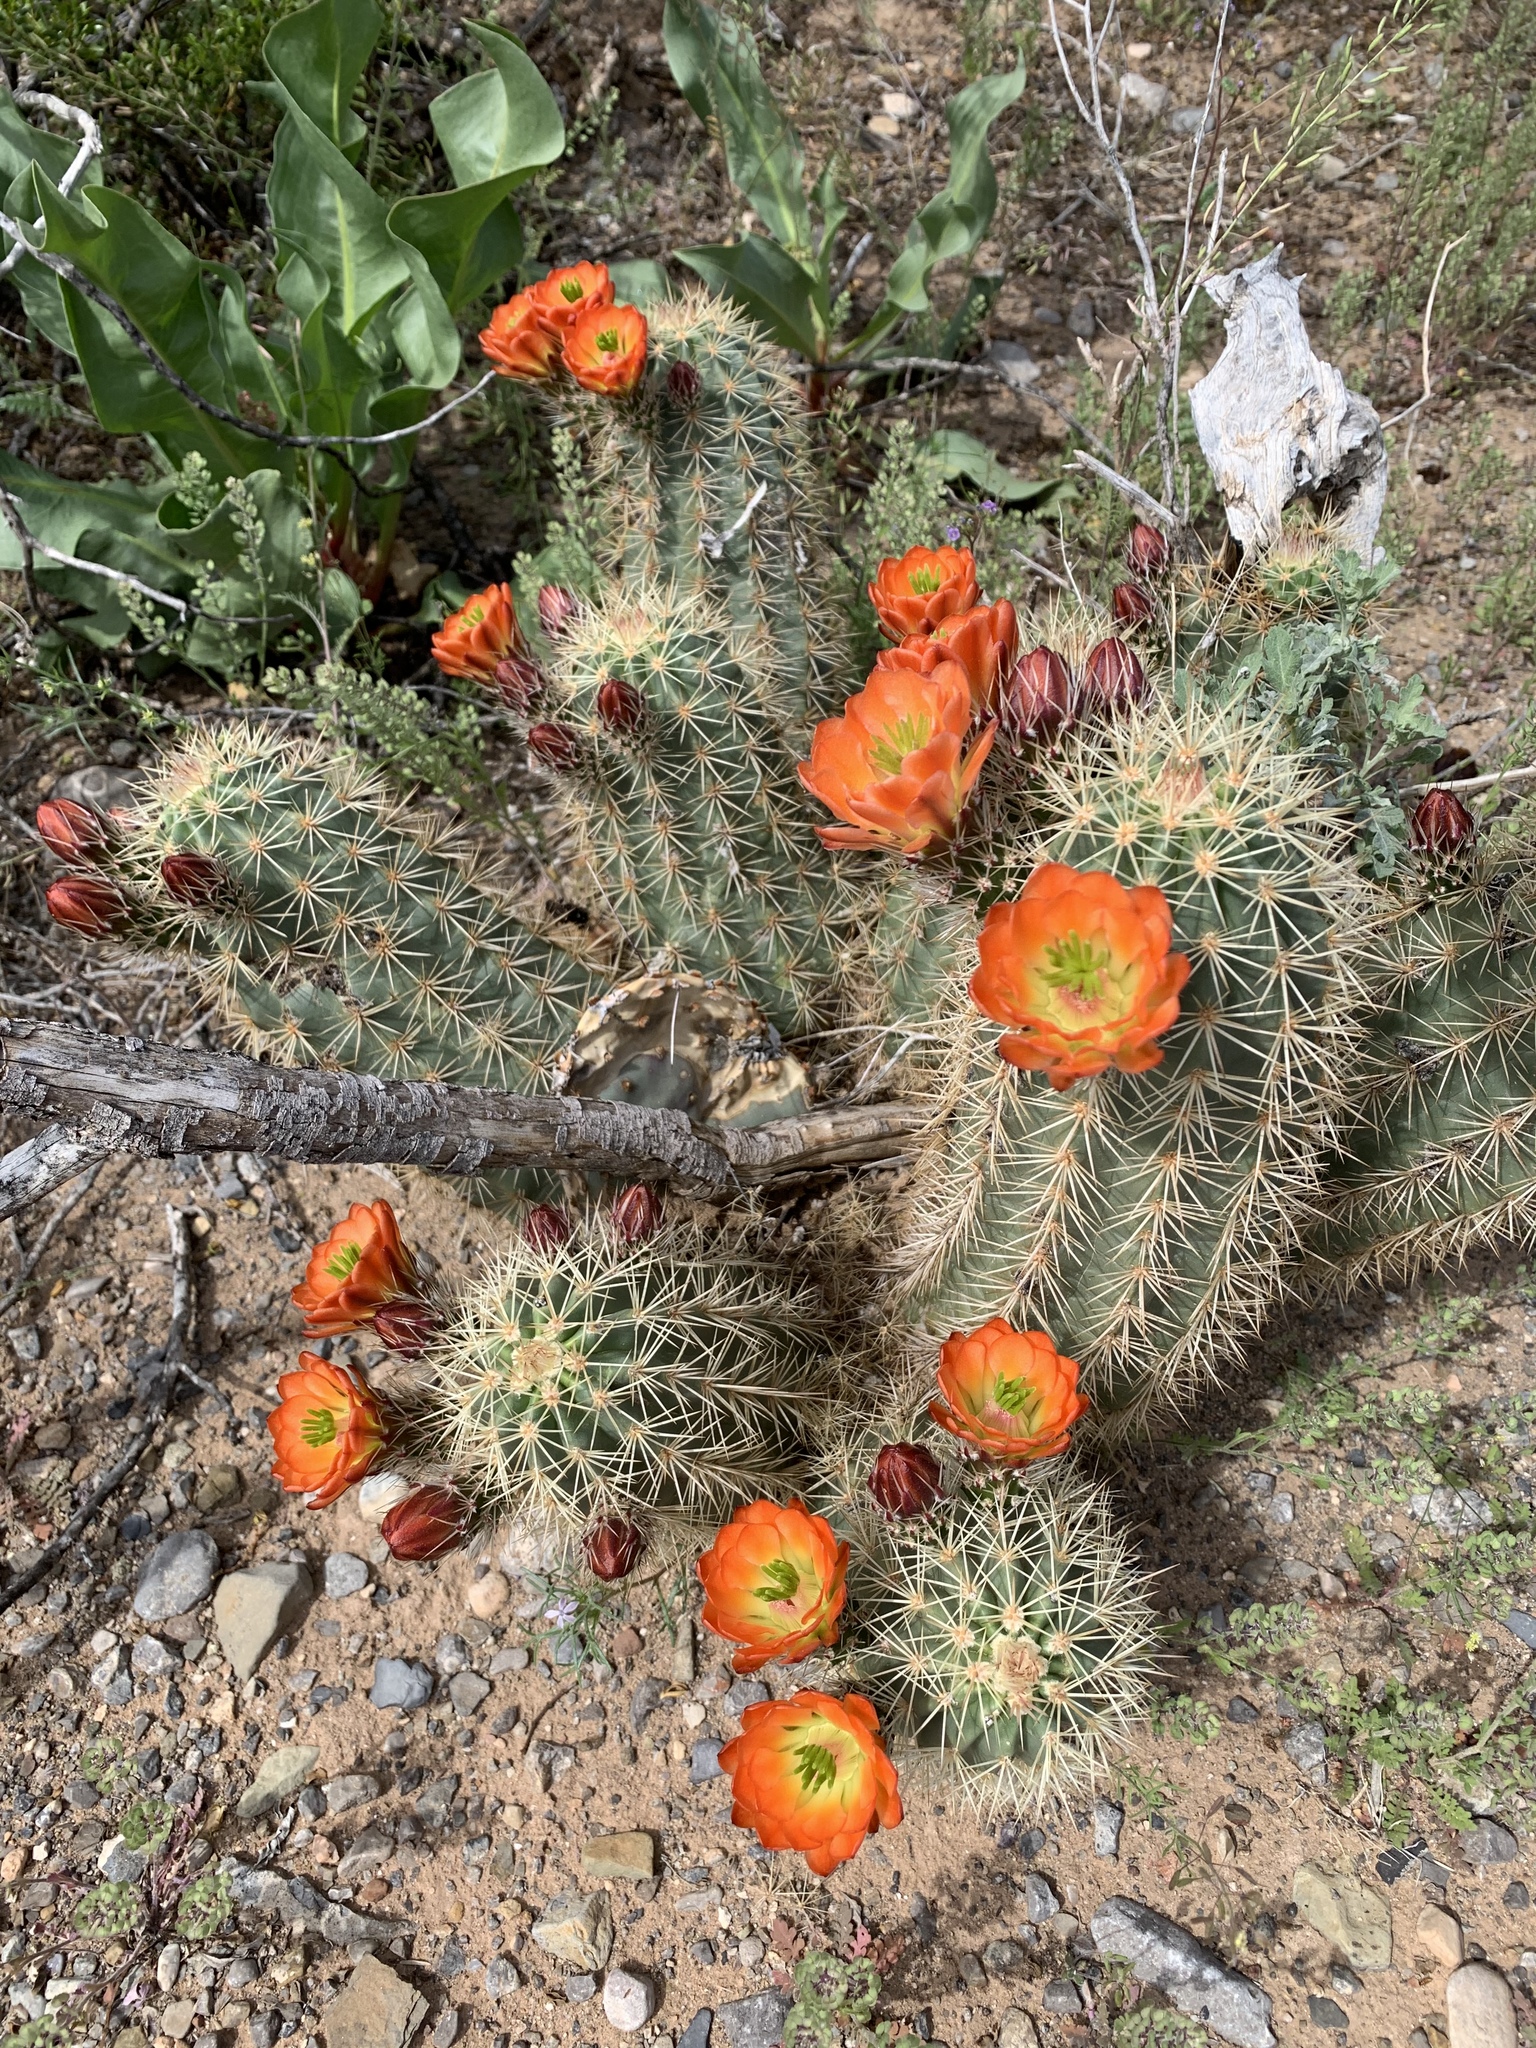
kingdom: Plantae
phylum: Tracheophyta
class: Magnoliopsida
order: Caryophyllales
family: Cactaceae
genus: Echinocereus
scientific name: Echinocereus coccineus
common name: Scarlet hedgehog cactus
